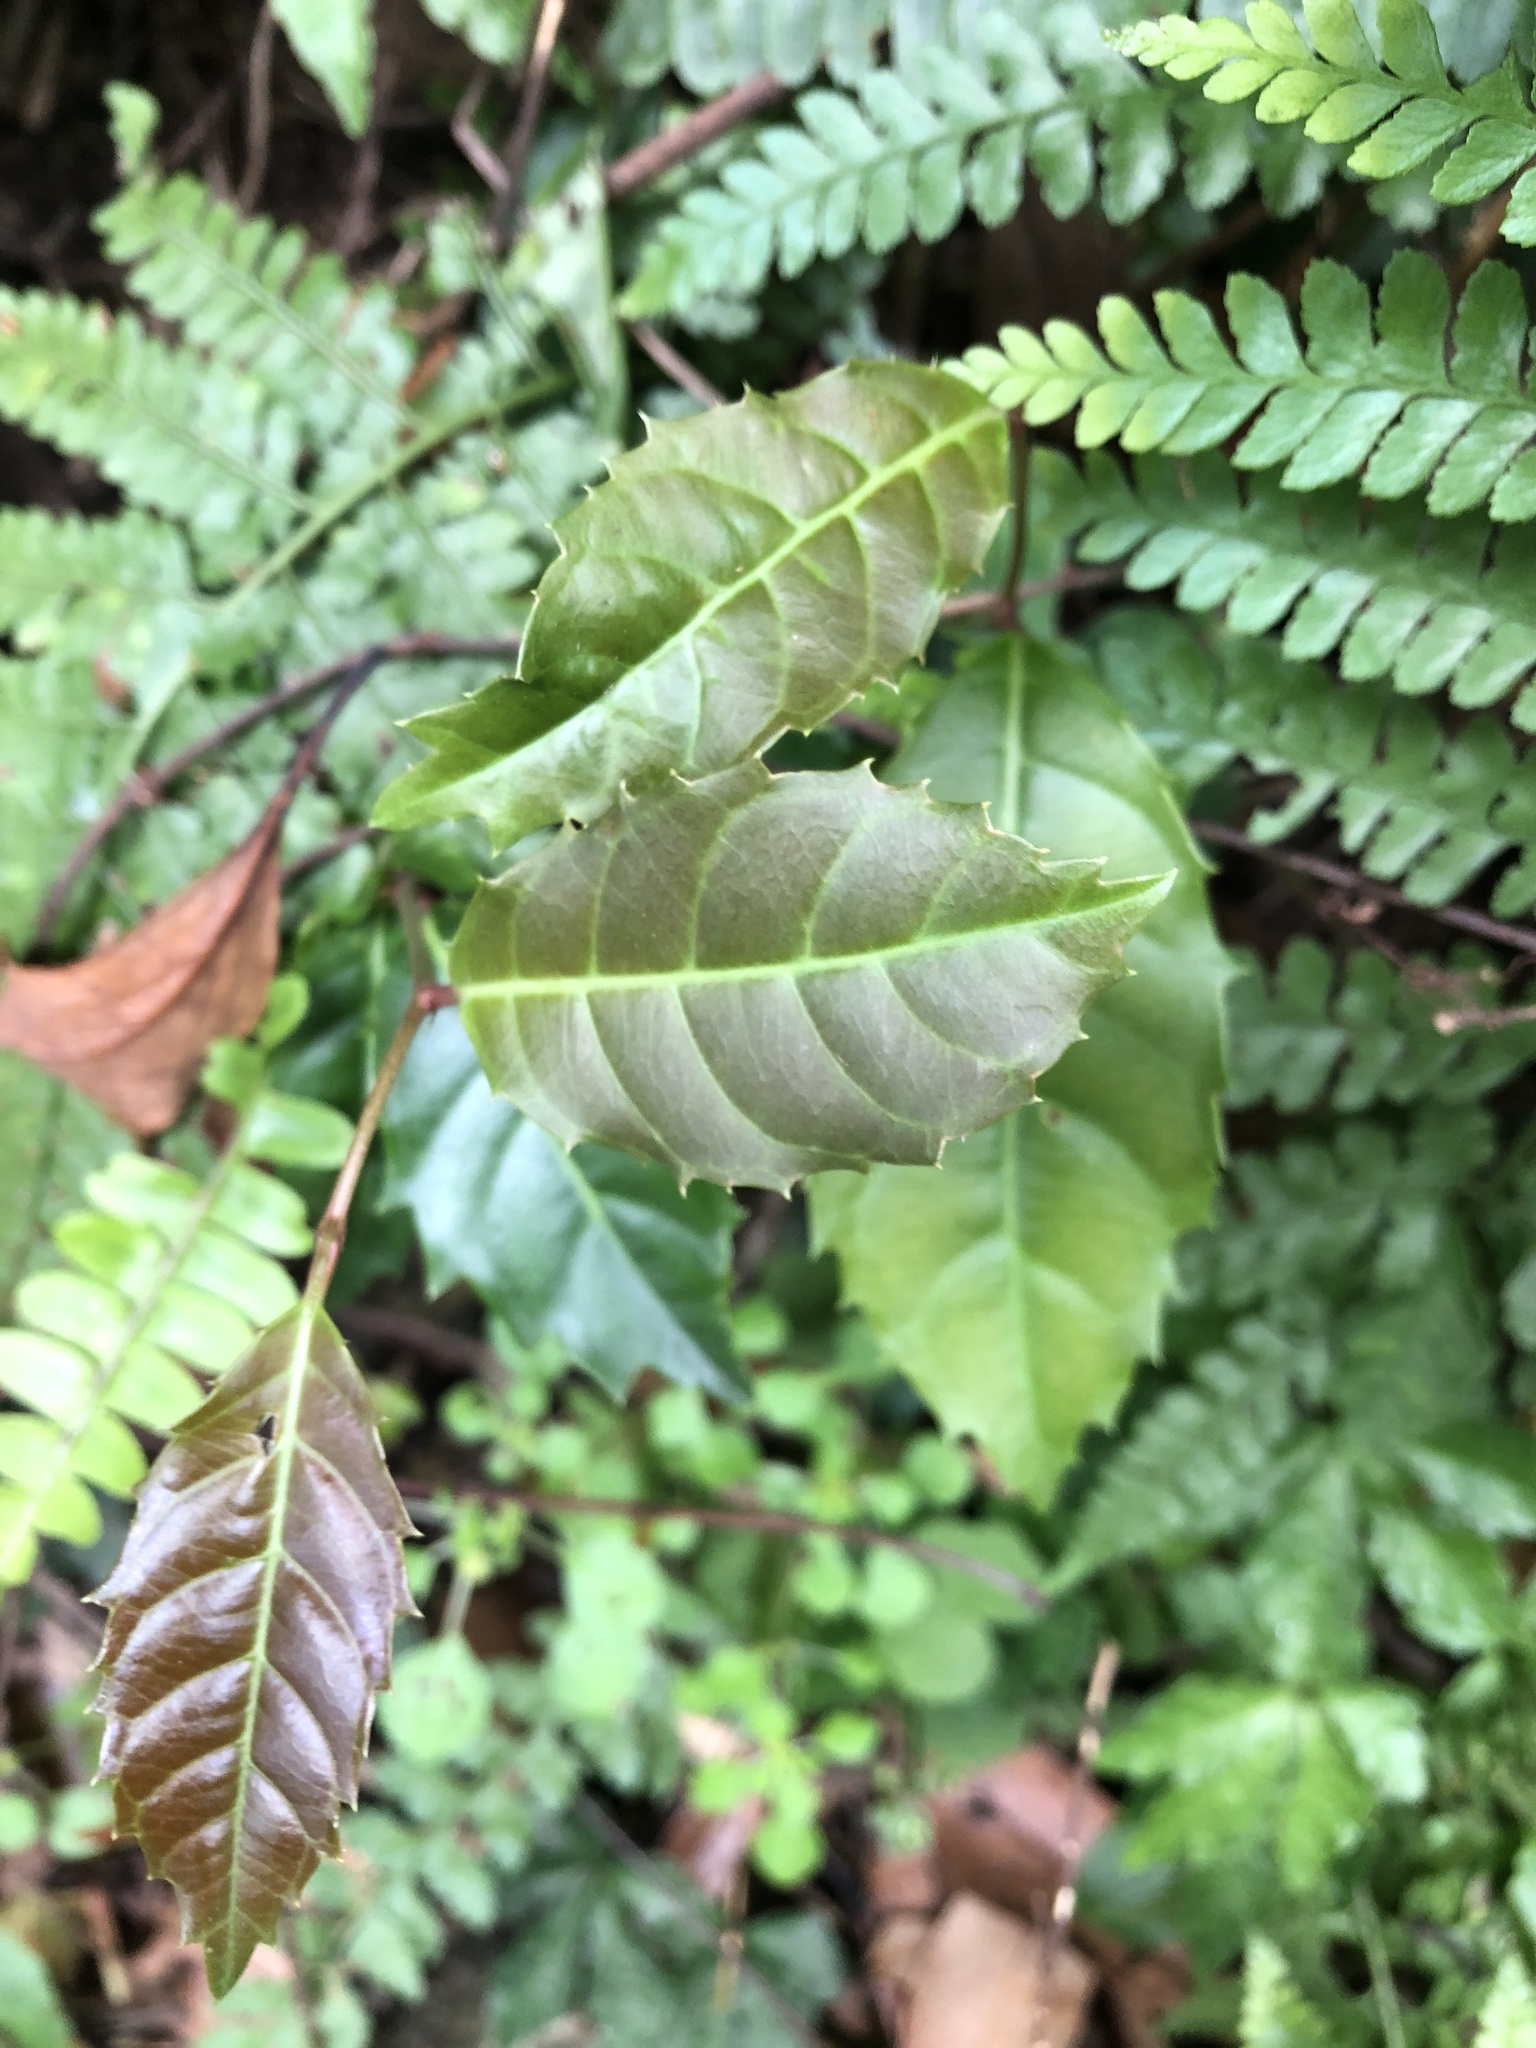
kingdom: Plantae
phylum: Tracheophyta
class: Magnoliopsida
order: Saxifragales
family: Iteaceae
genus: Itea
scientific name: Itea oldhamii
